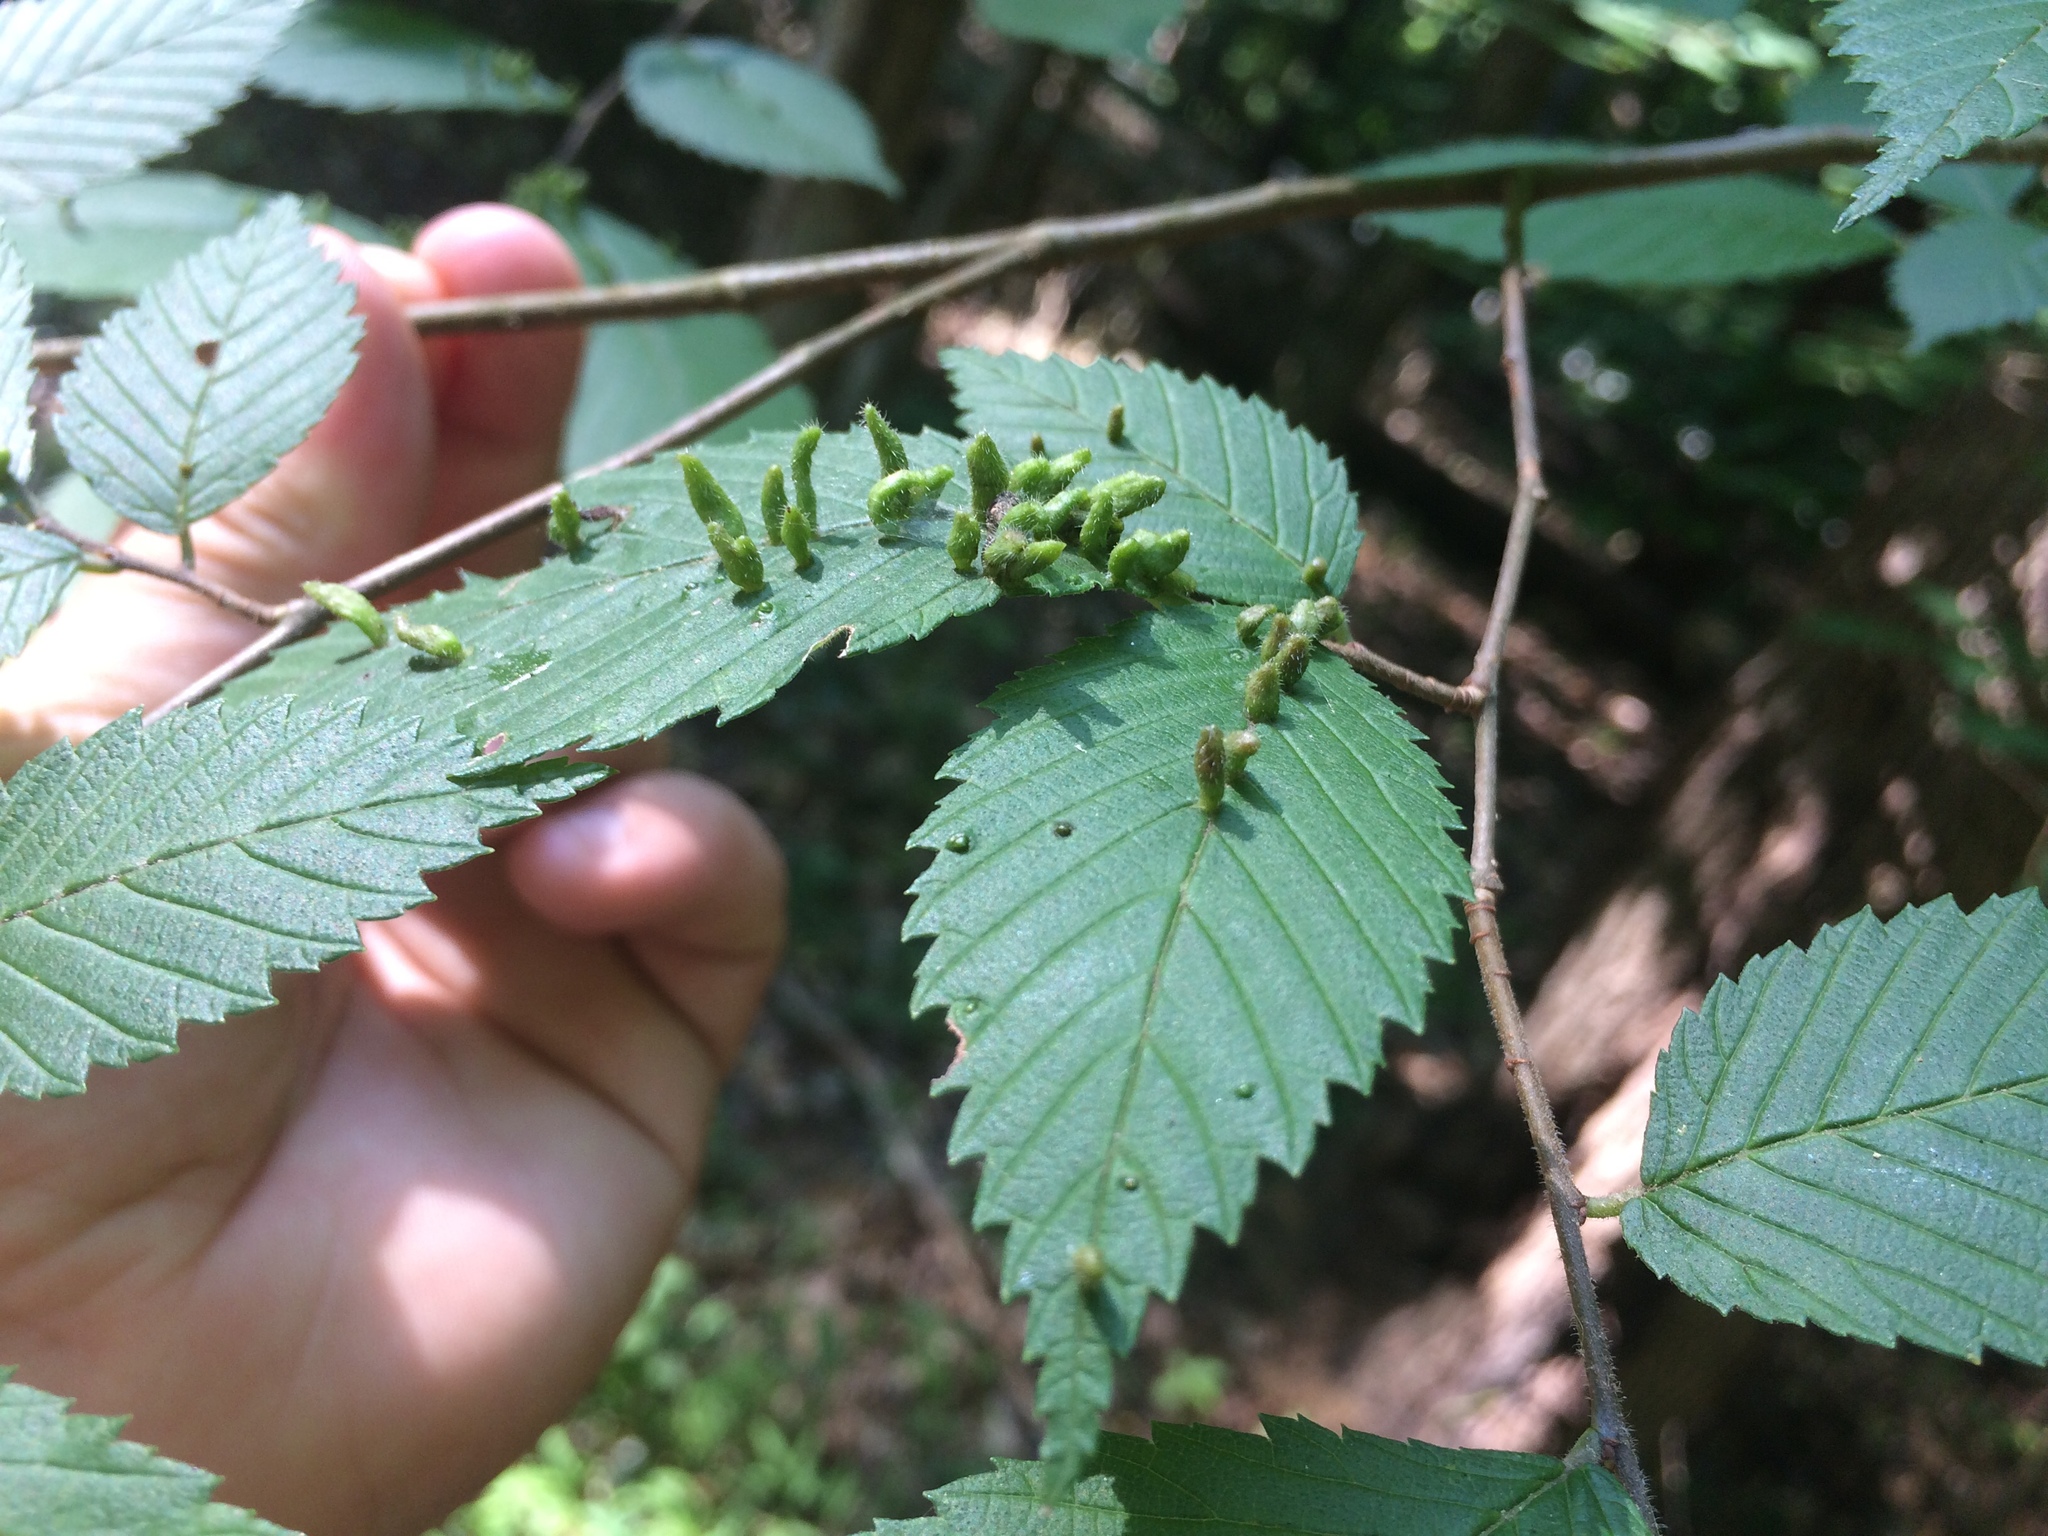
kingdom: Animalia
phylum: Arthropoda
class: Arachnida
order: Trombidiformes
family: Eriophyidae
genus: Aceria
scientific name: Aceria
